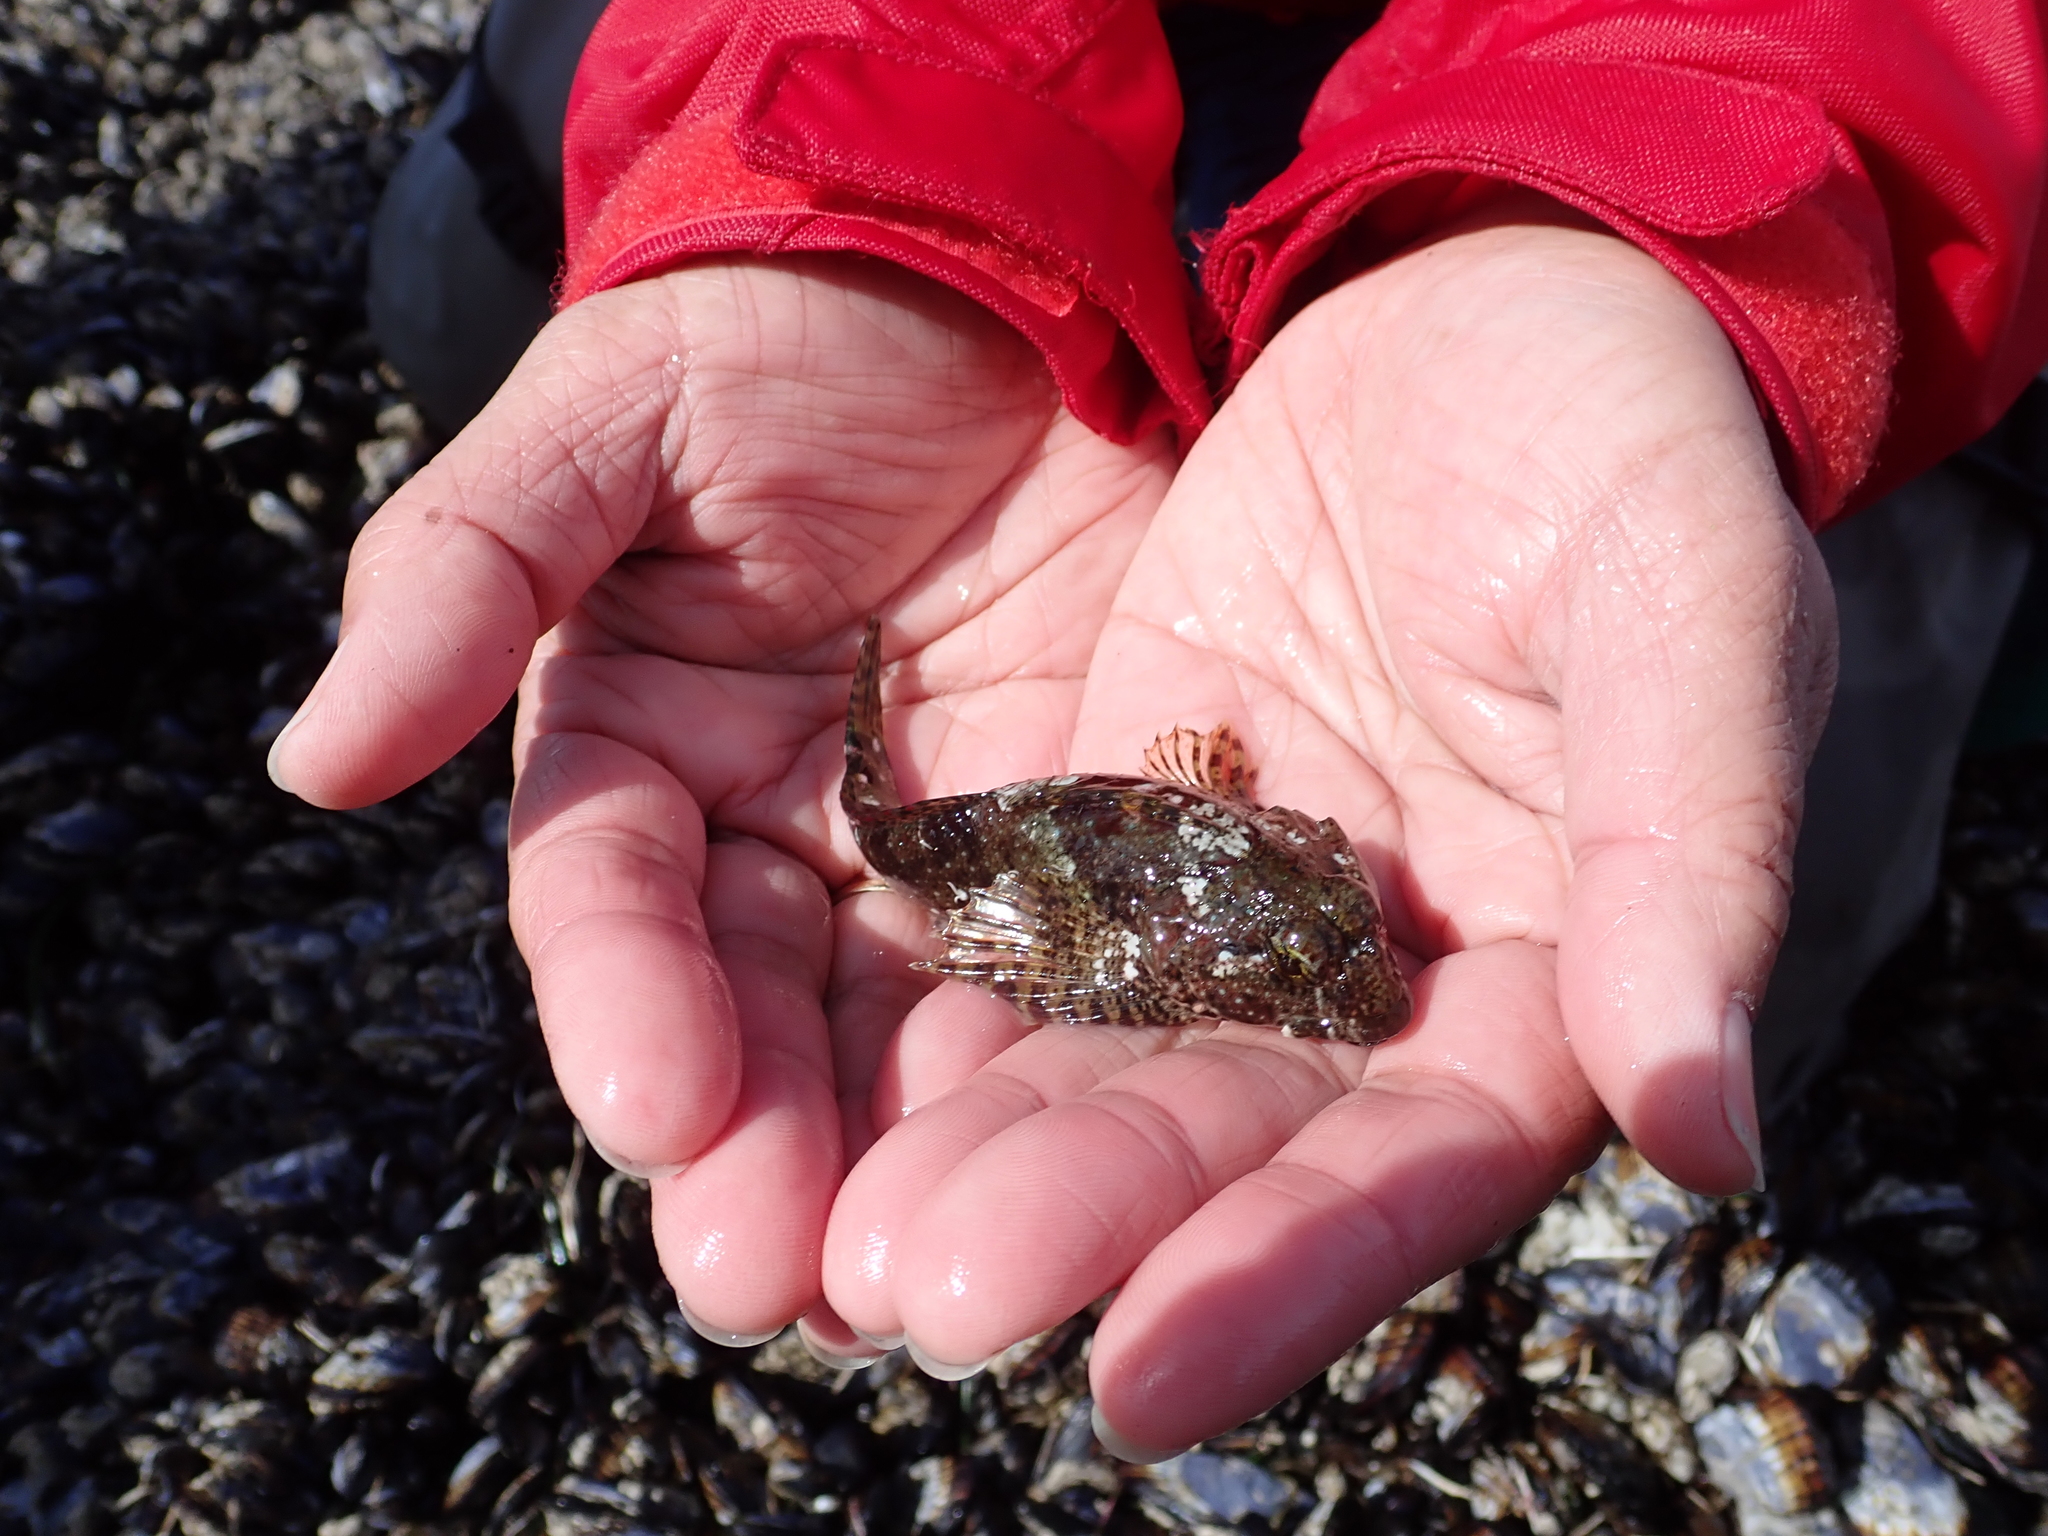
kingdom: Animalia
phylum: Chordata
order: Scorpaeniformes
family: Cottidae
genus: Clinocottus
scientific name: Clinocottus analis
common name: Woolly sculpin
